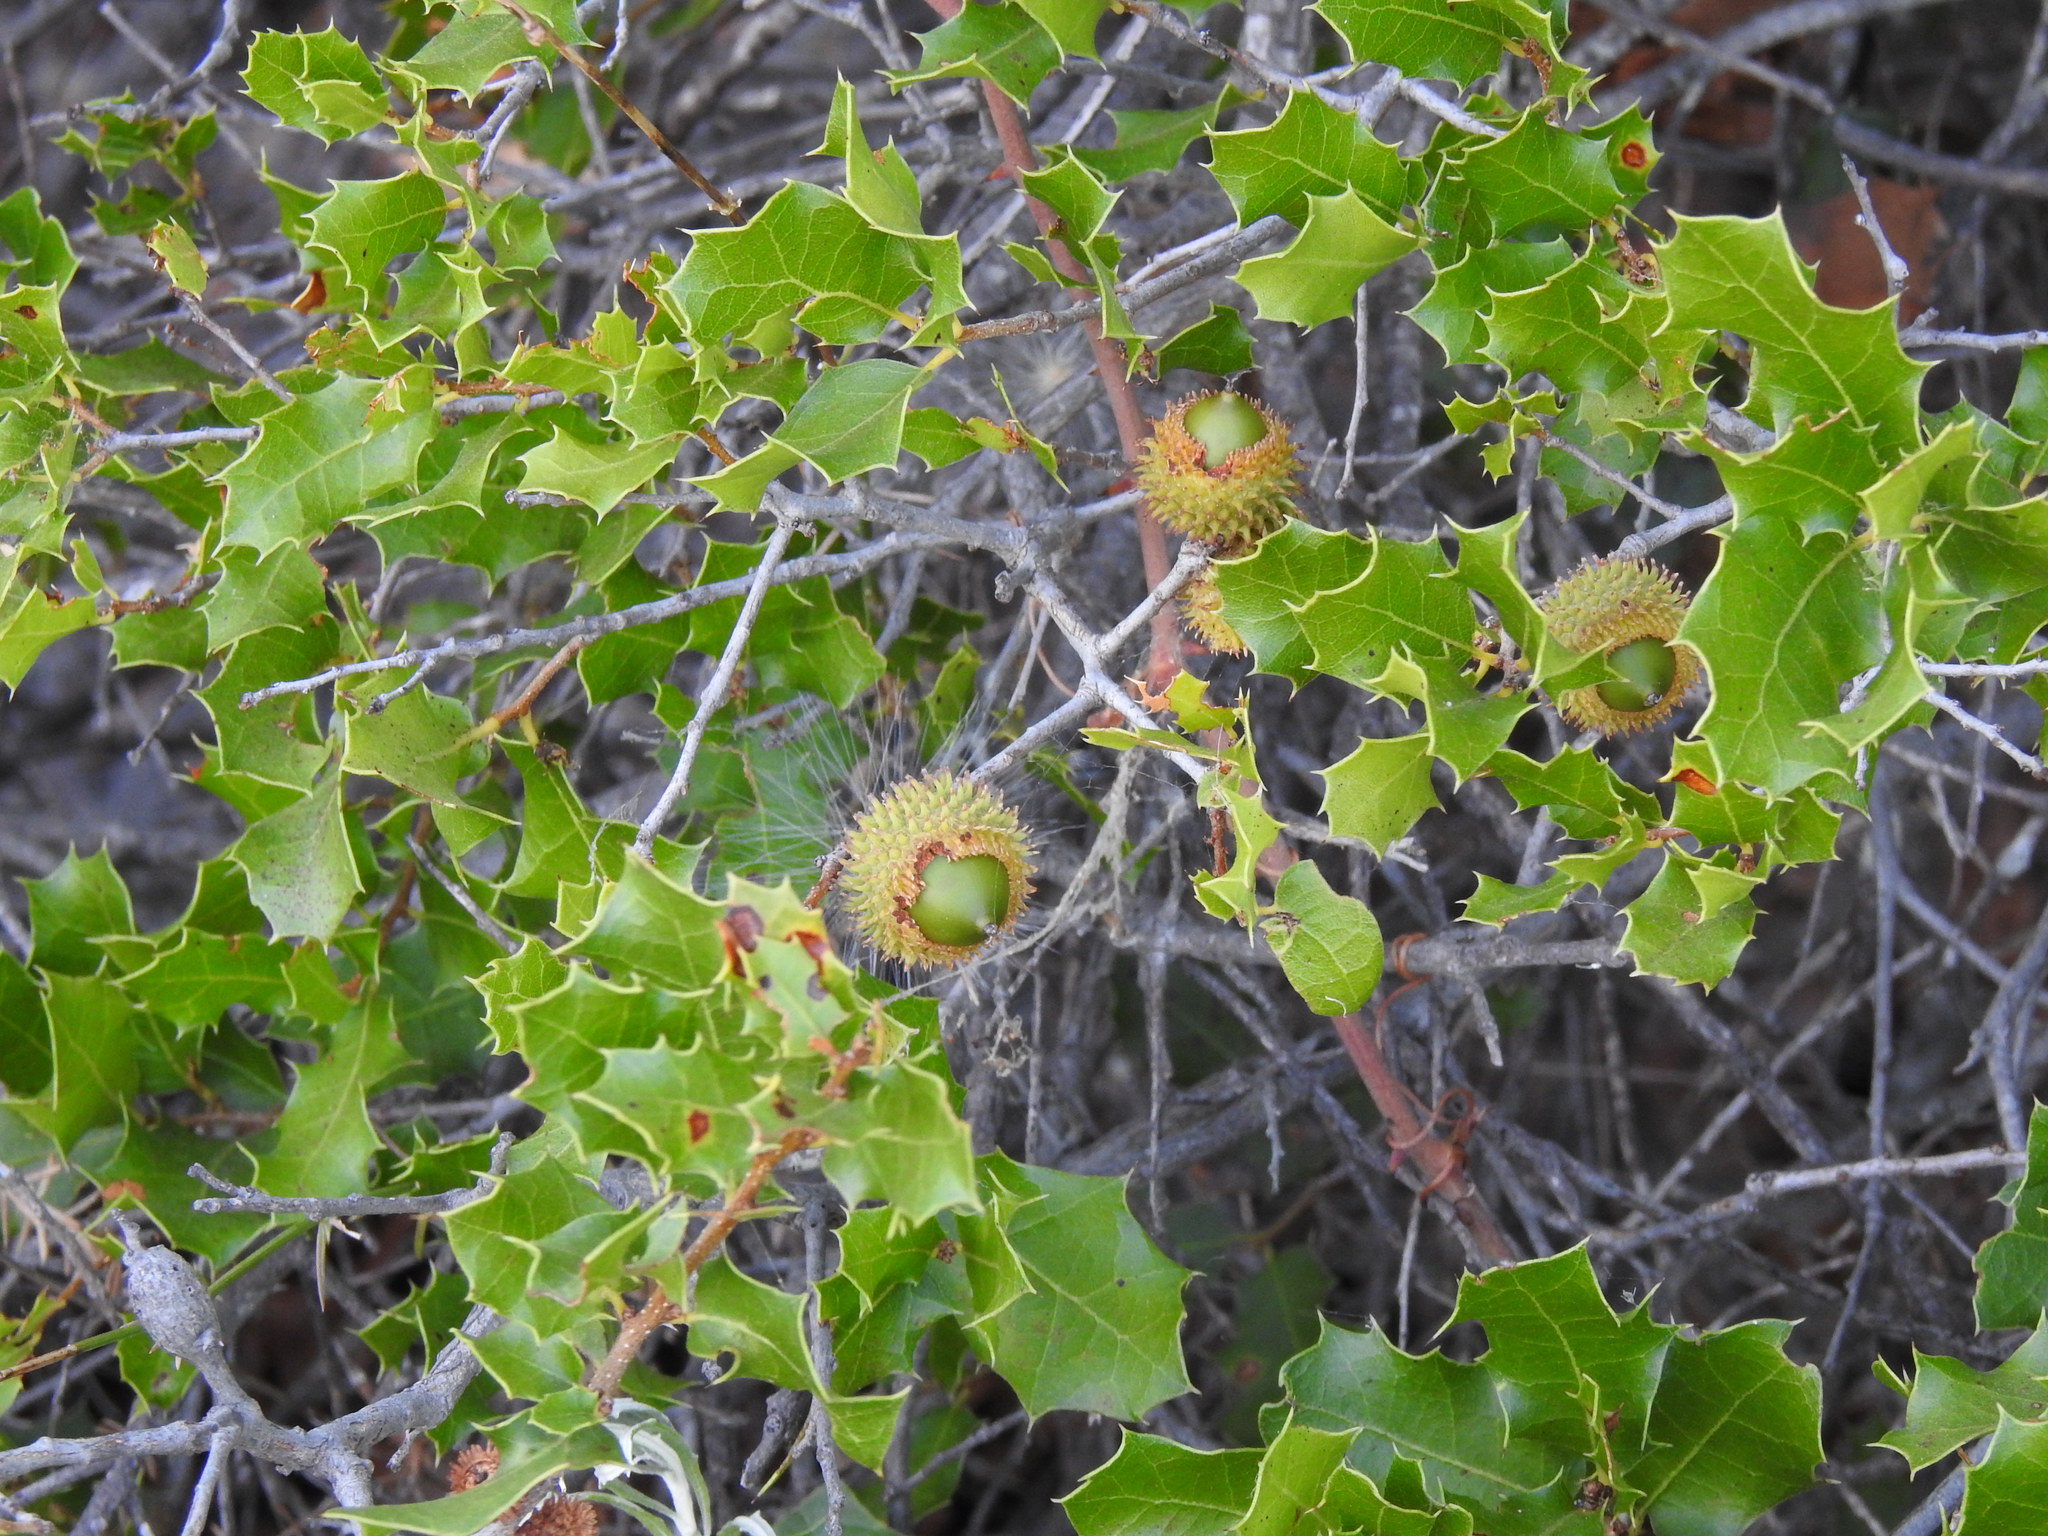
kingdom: Plantae
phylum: Tracheophyta
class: Magnoliopsida
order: Fagales
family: Fagaceae
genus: Quercus
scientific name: Quercus coccifera
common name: Kermes oak
